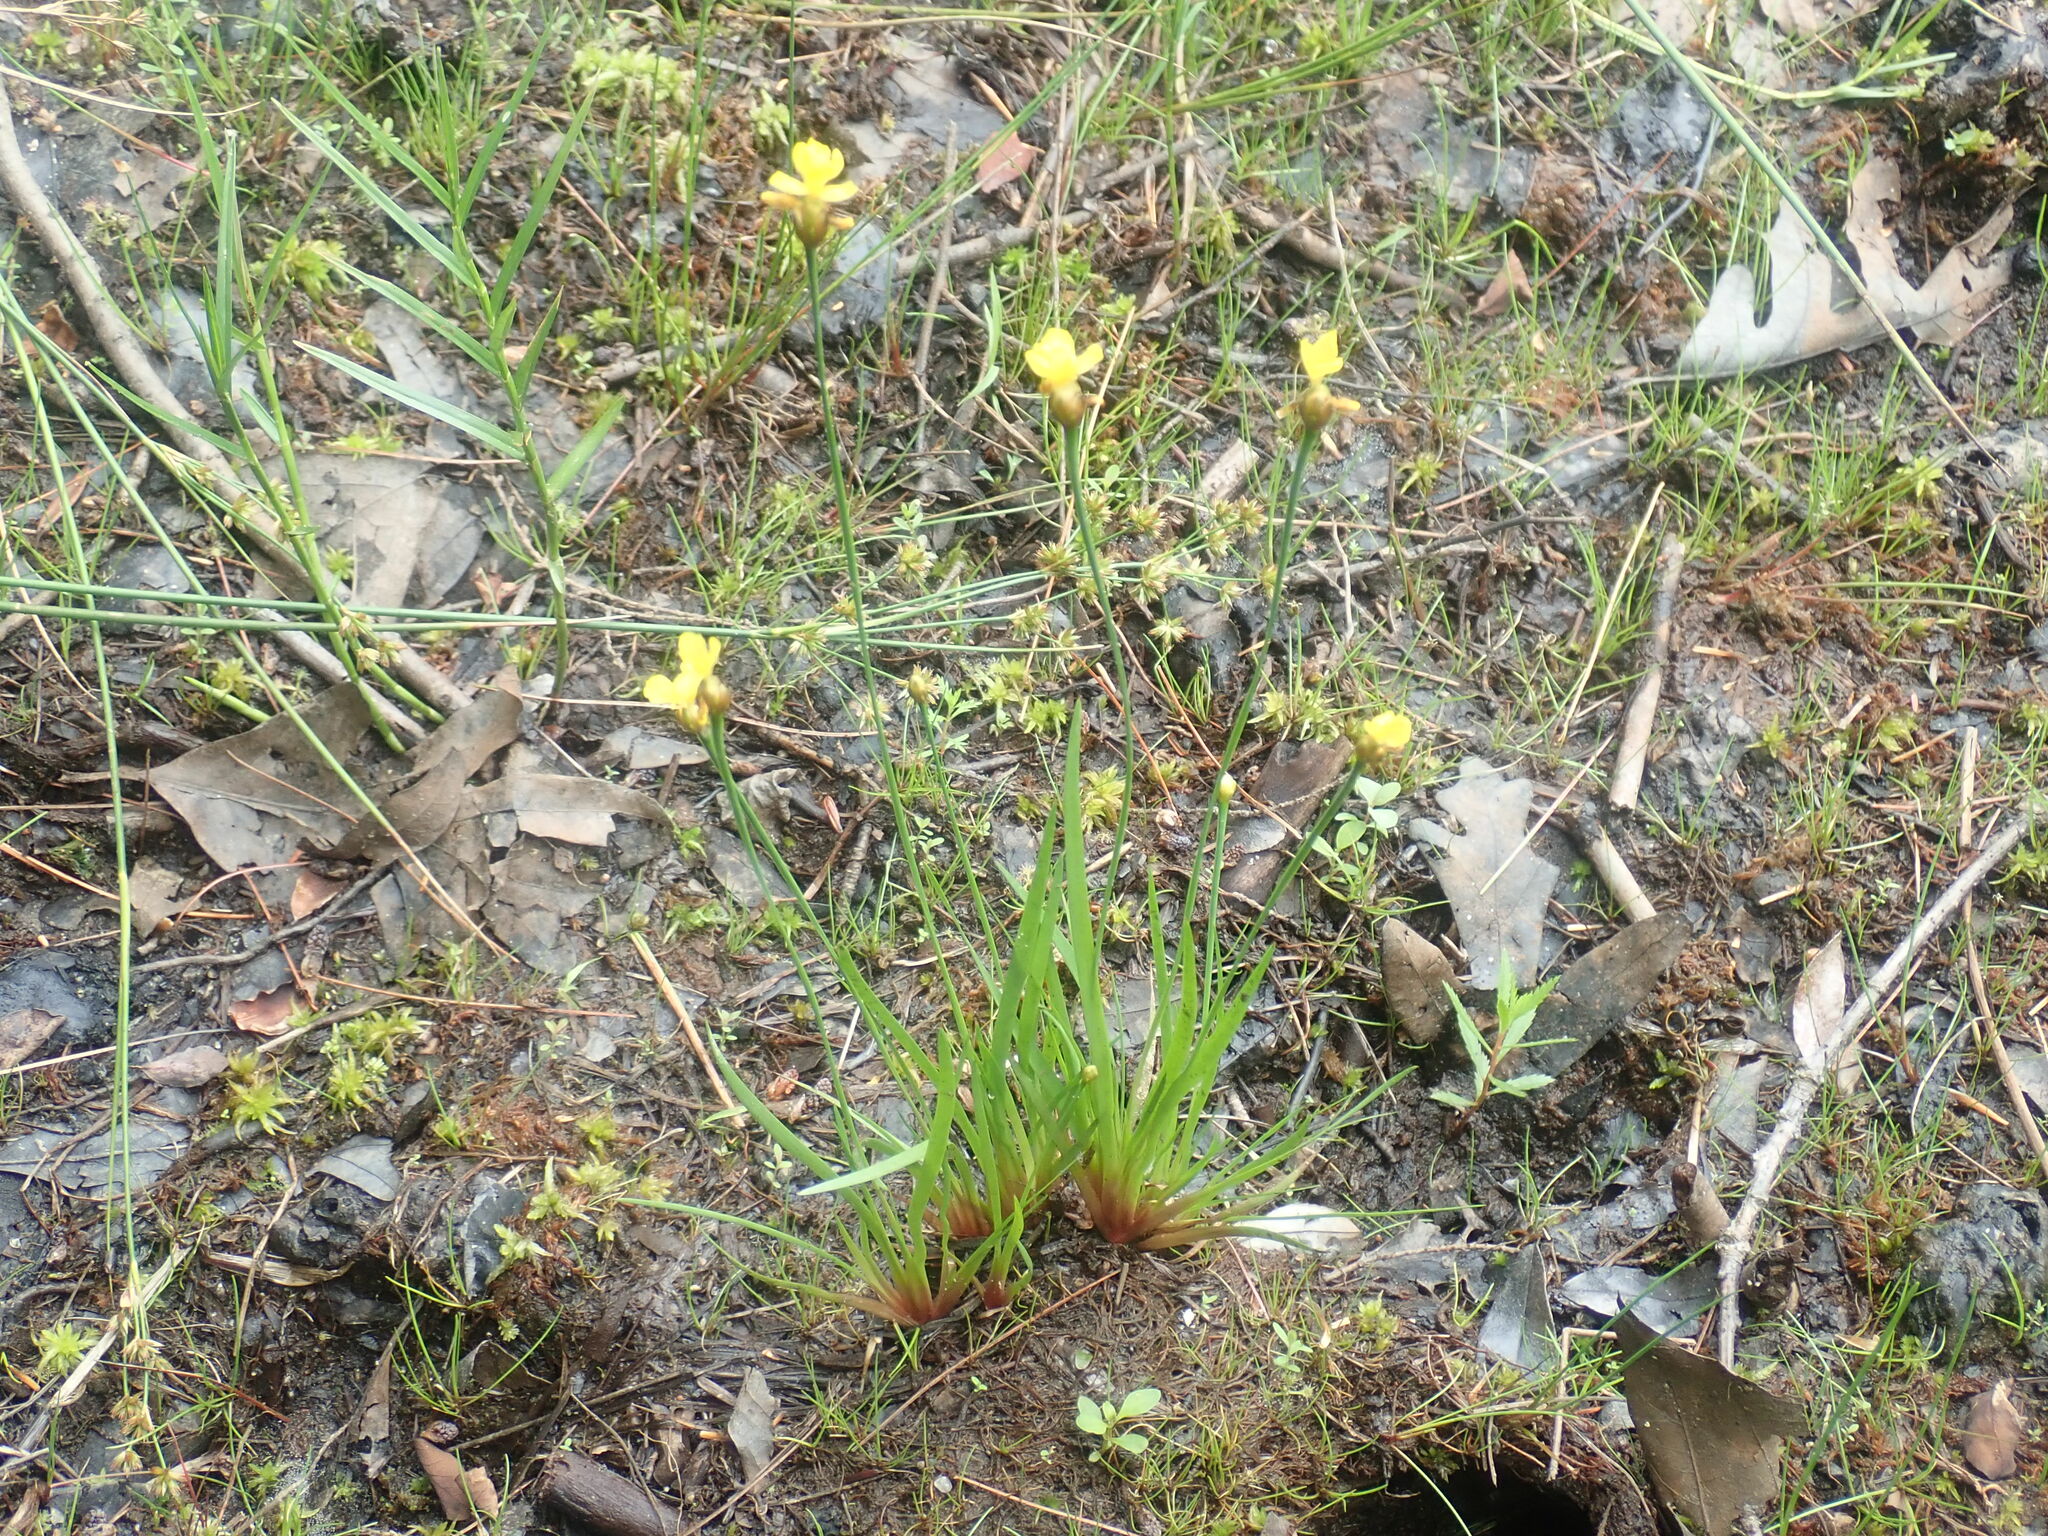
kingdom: Plantae
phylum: Tracheophyta
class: Liliopsida
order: Poales
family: Xyridaceae
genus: Xyris
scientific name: Xyris
